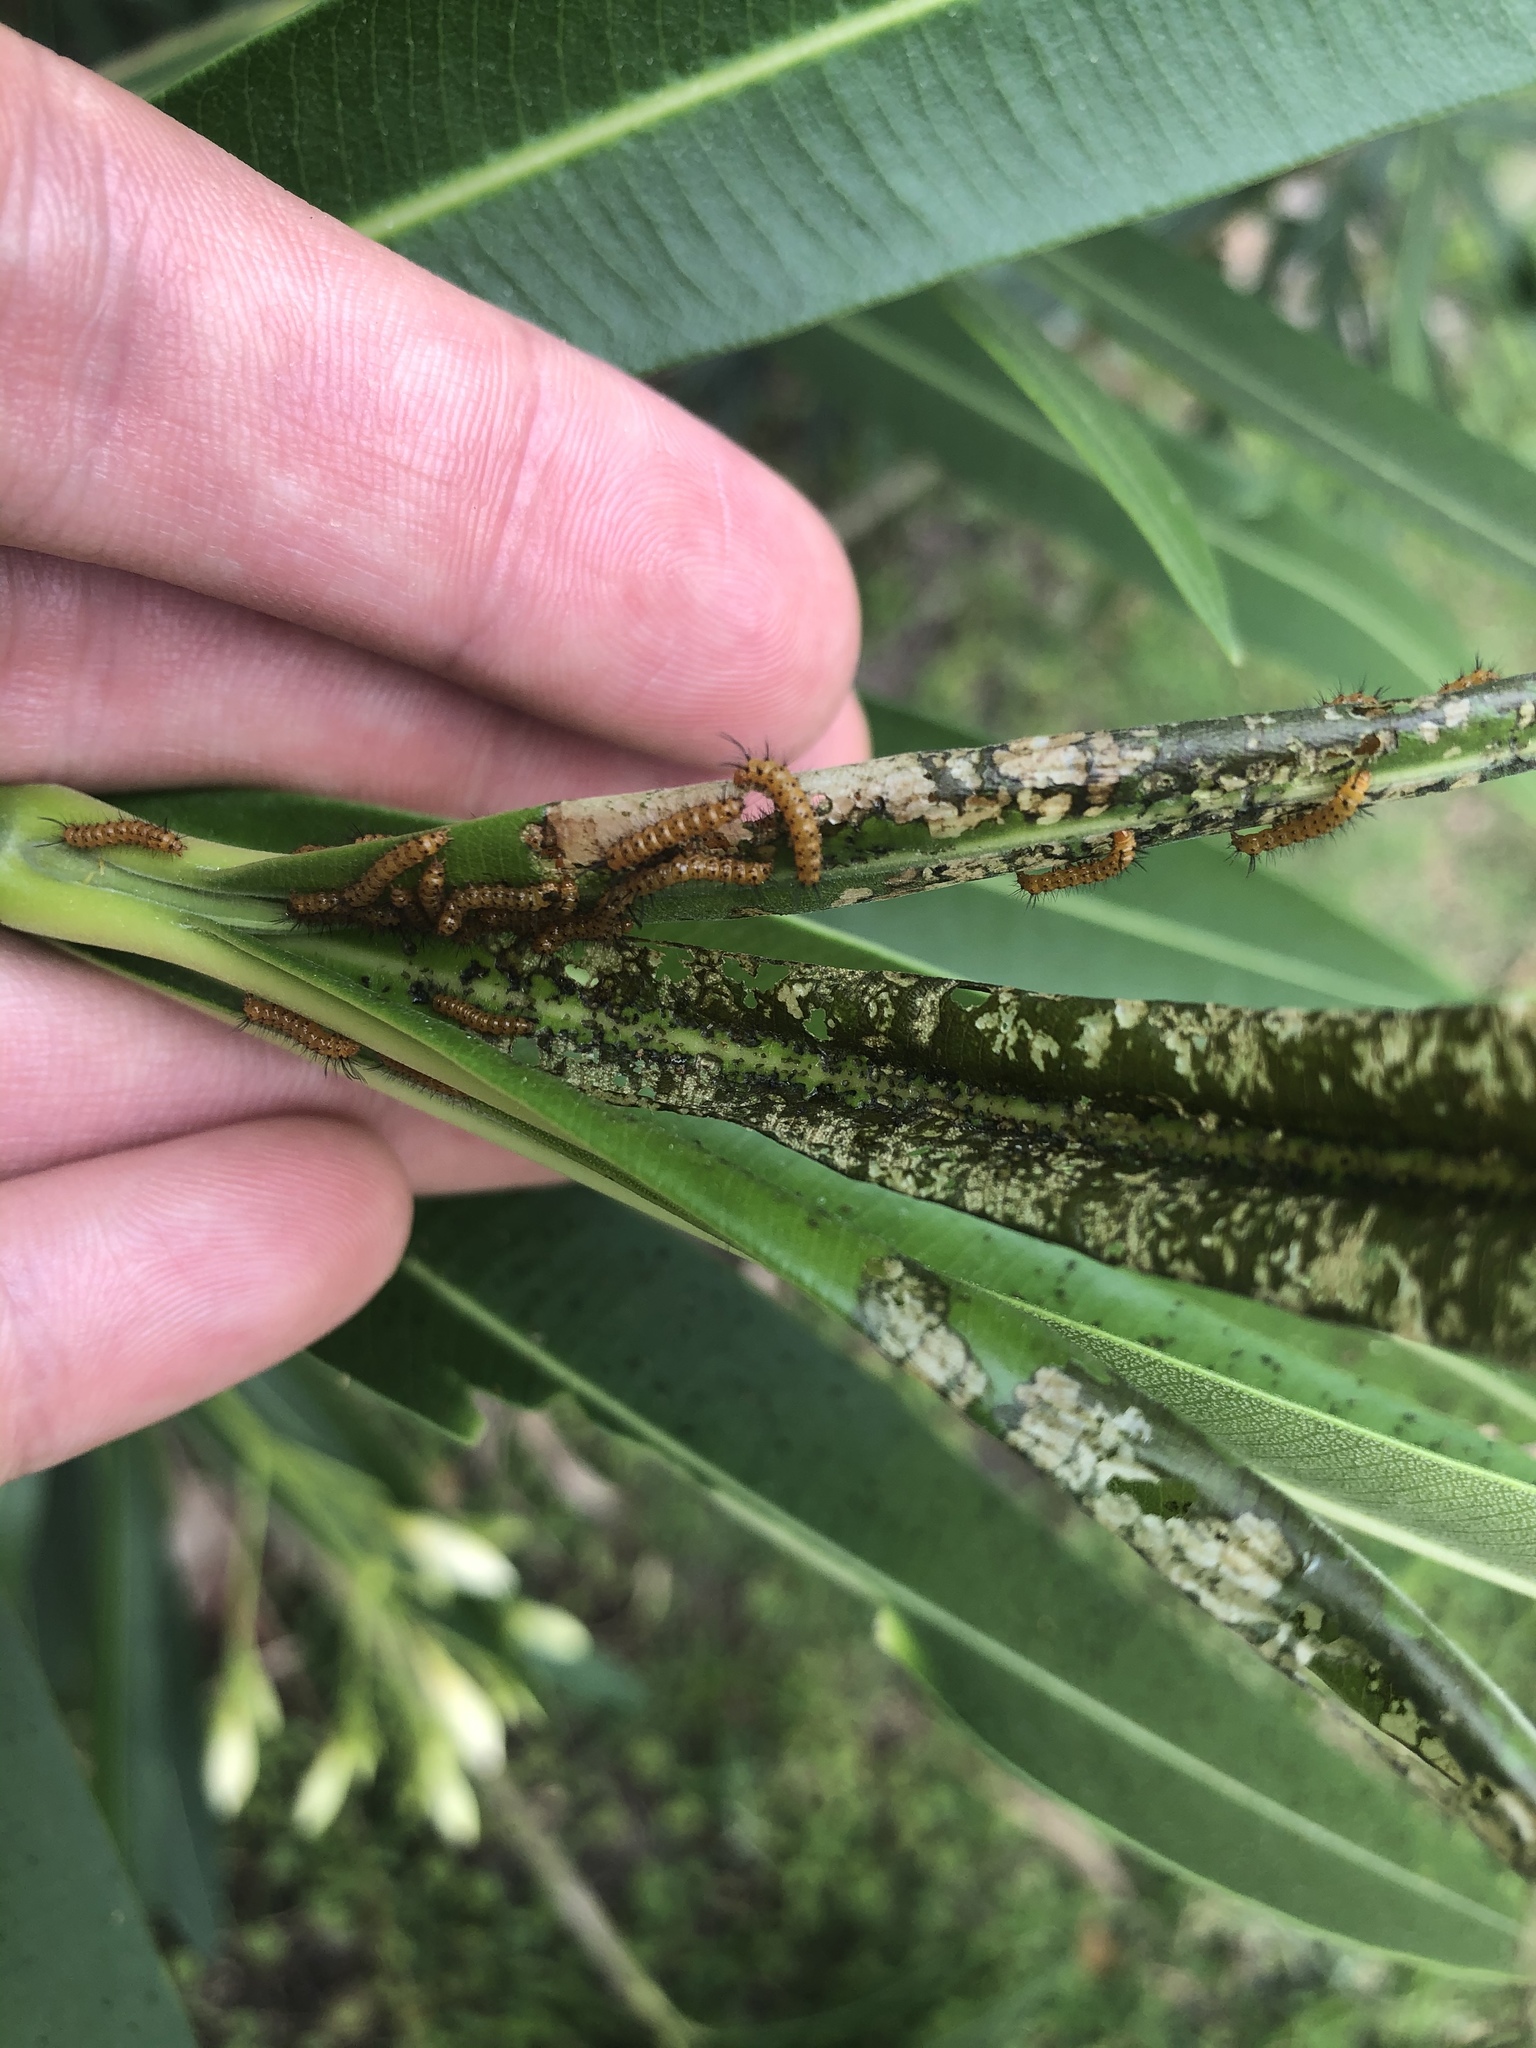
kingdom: Animalia
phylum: Arthropoda
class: Insecta
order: Lepidoptera
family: Erebidae
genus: Syntomeida
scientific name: Syntomeida epilais
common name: Polka-dot wasp moth
